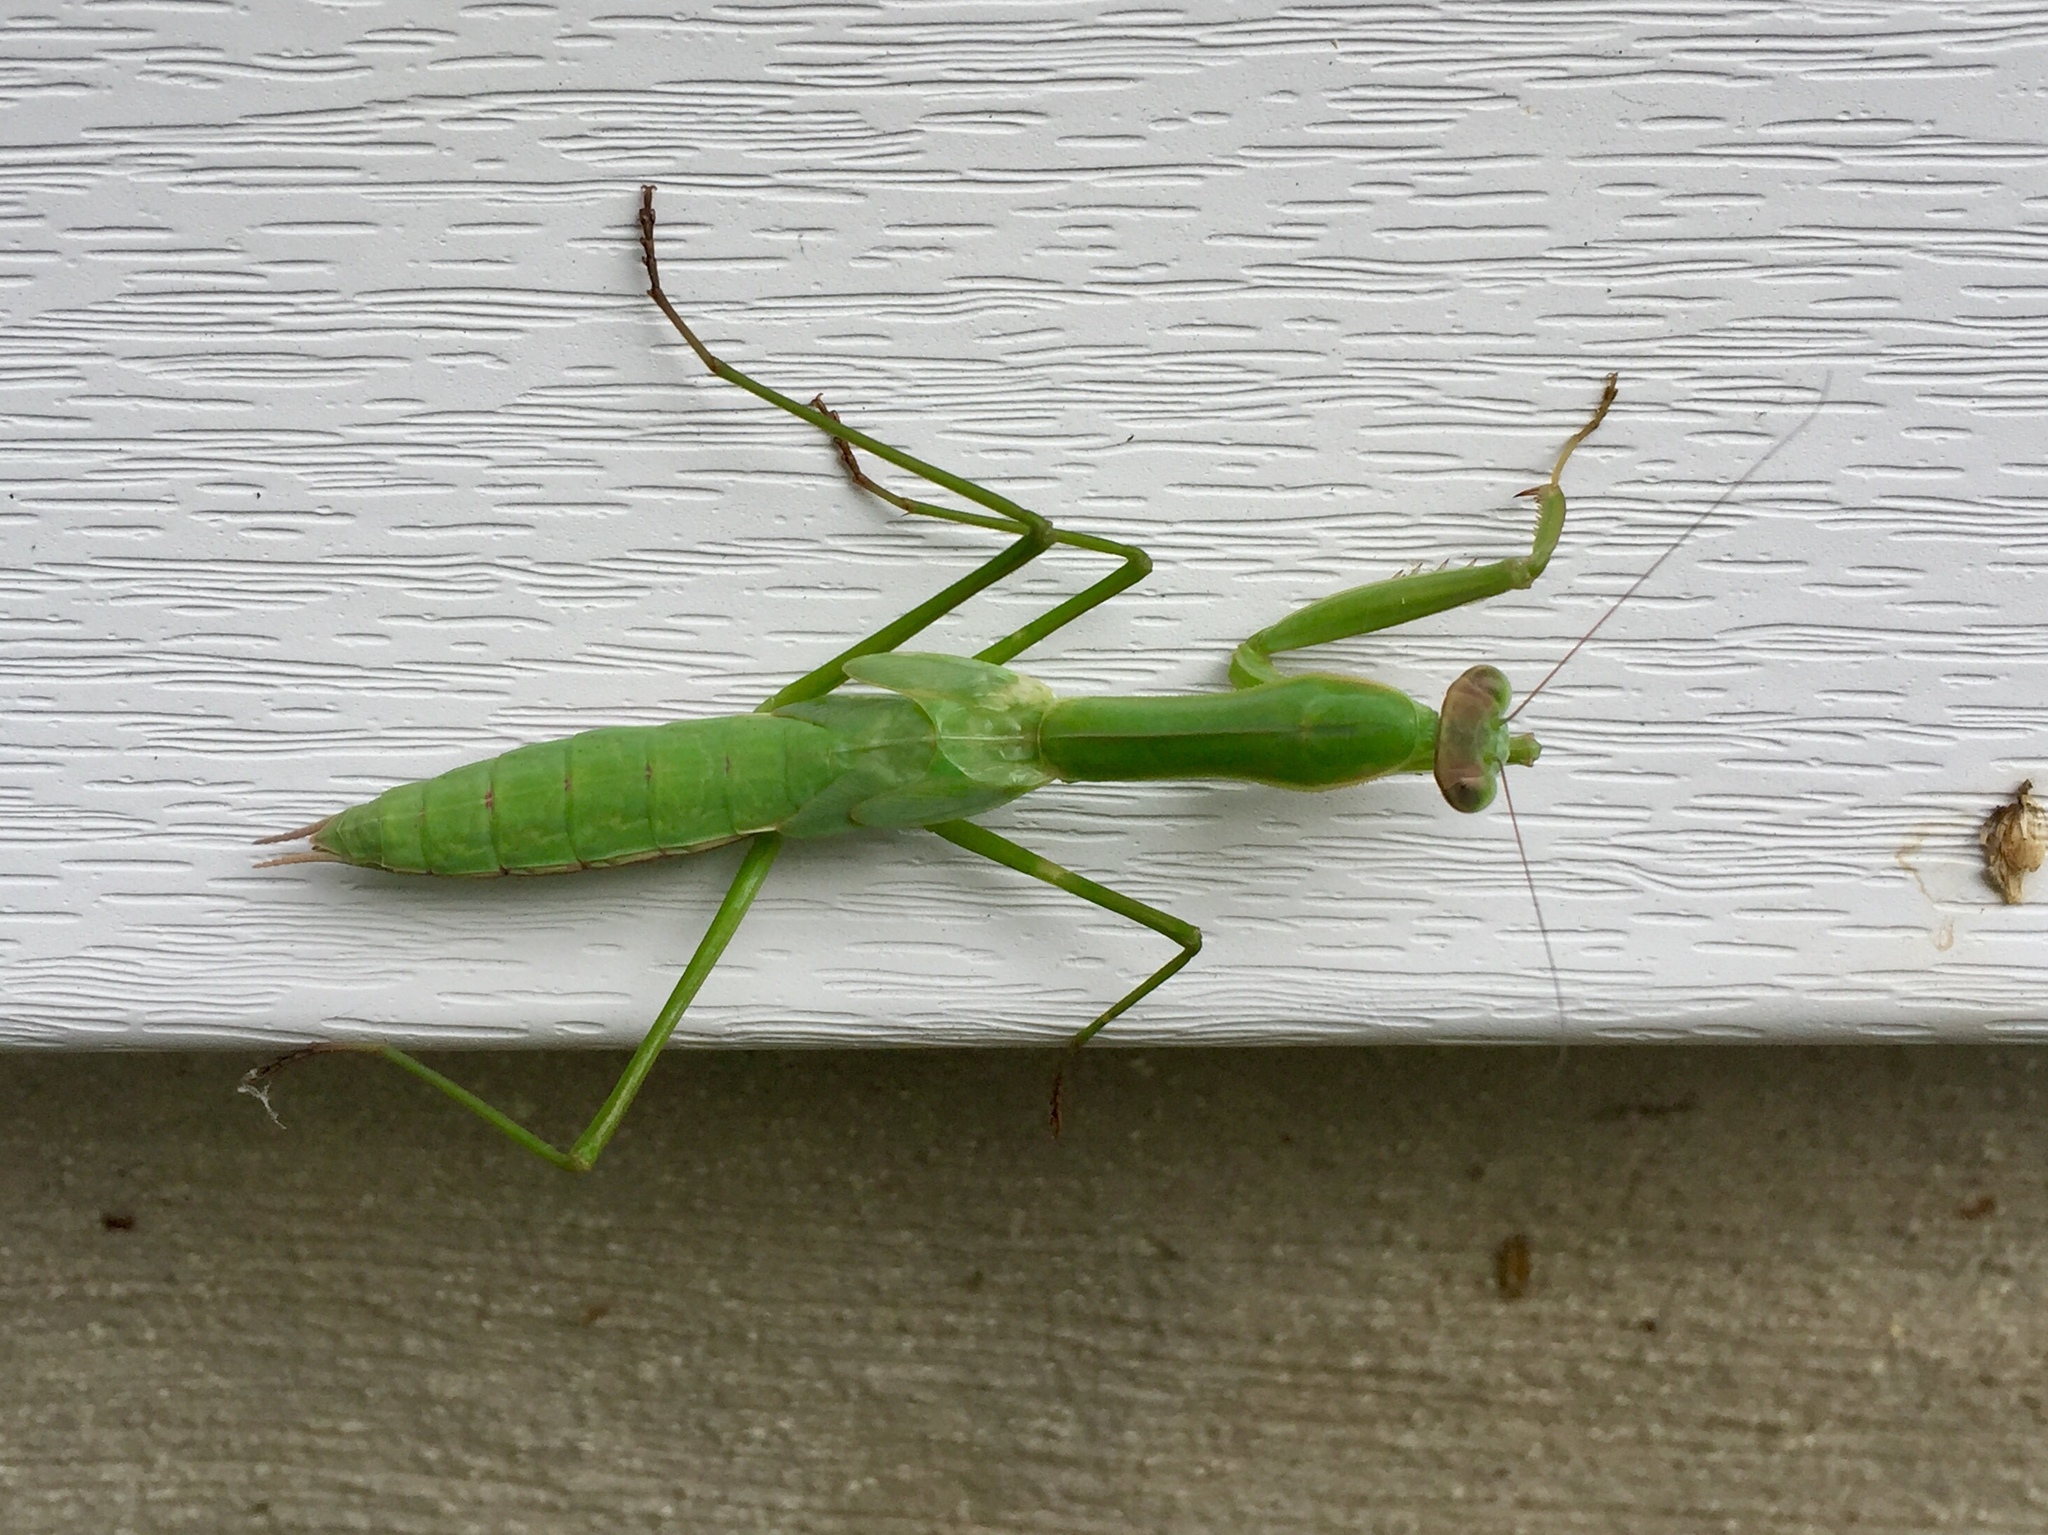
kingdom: Animalia
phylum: Arthropoda
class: Insecta
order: Mantodea
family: Mantidae
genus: Tenodera
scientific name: Tenodera sinensis
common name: Chinese mantis
